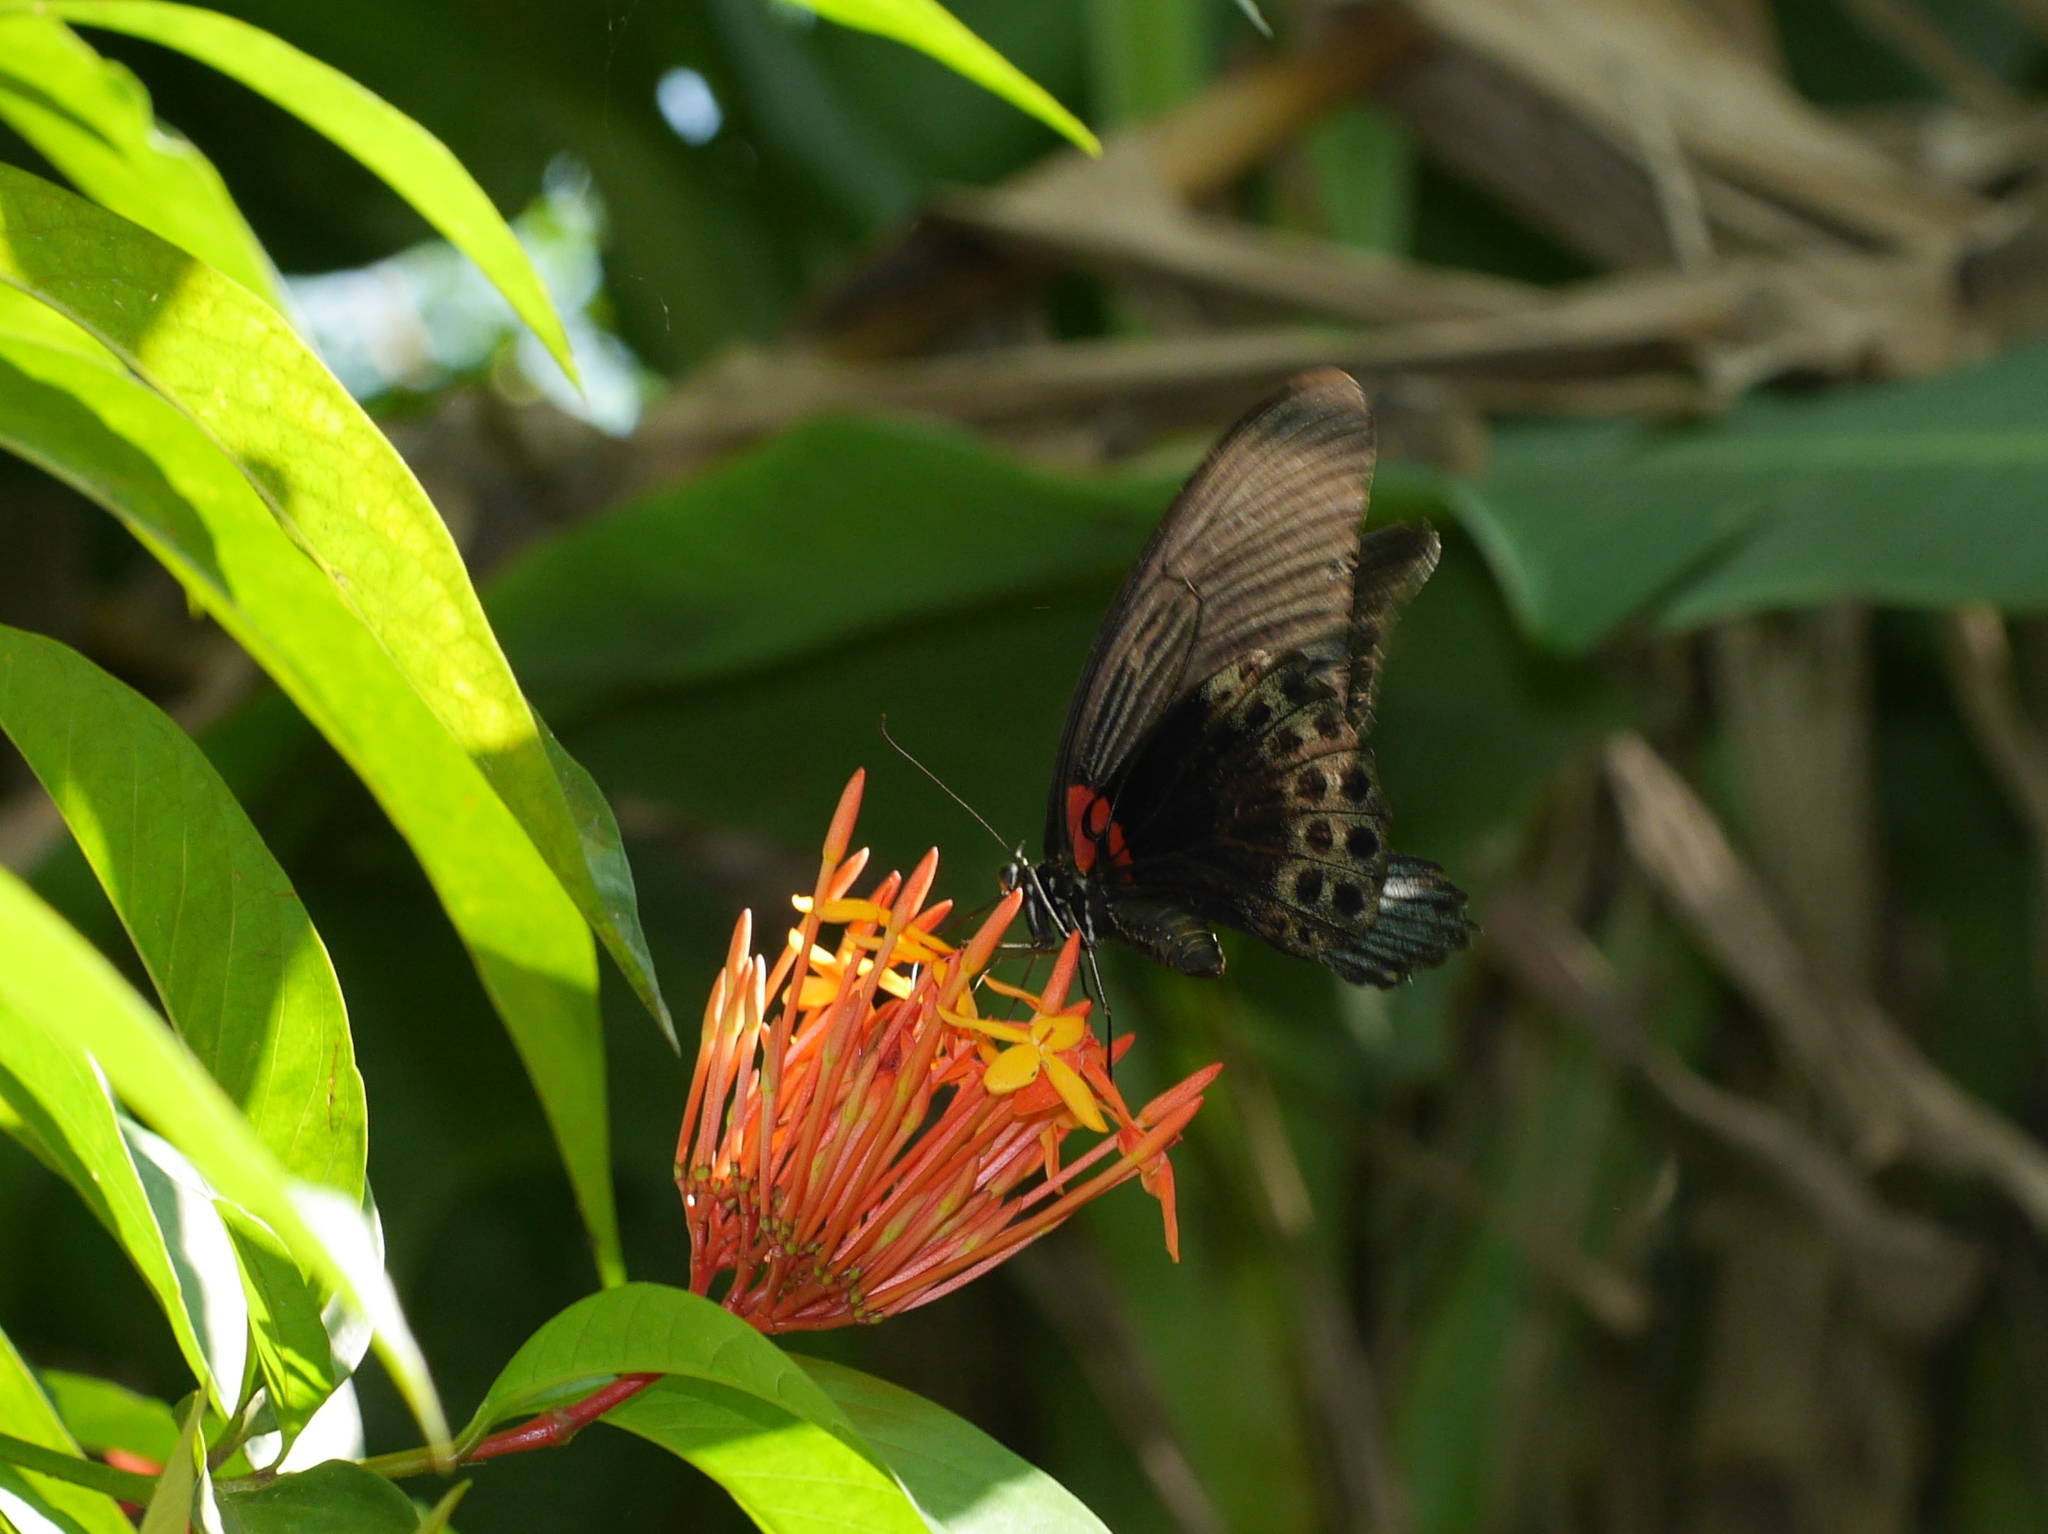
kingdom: Animalia
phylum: Arthropoda
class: Insecta
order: Lepidoptera
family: Papilionidae
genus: Papilio
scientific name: Papilio memnon
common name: Great mormon
